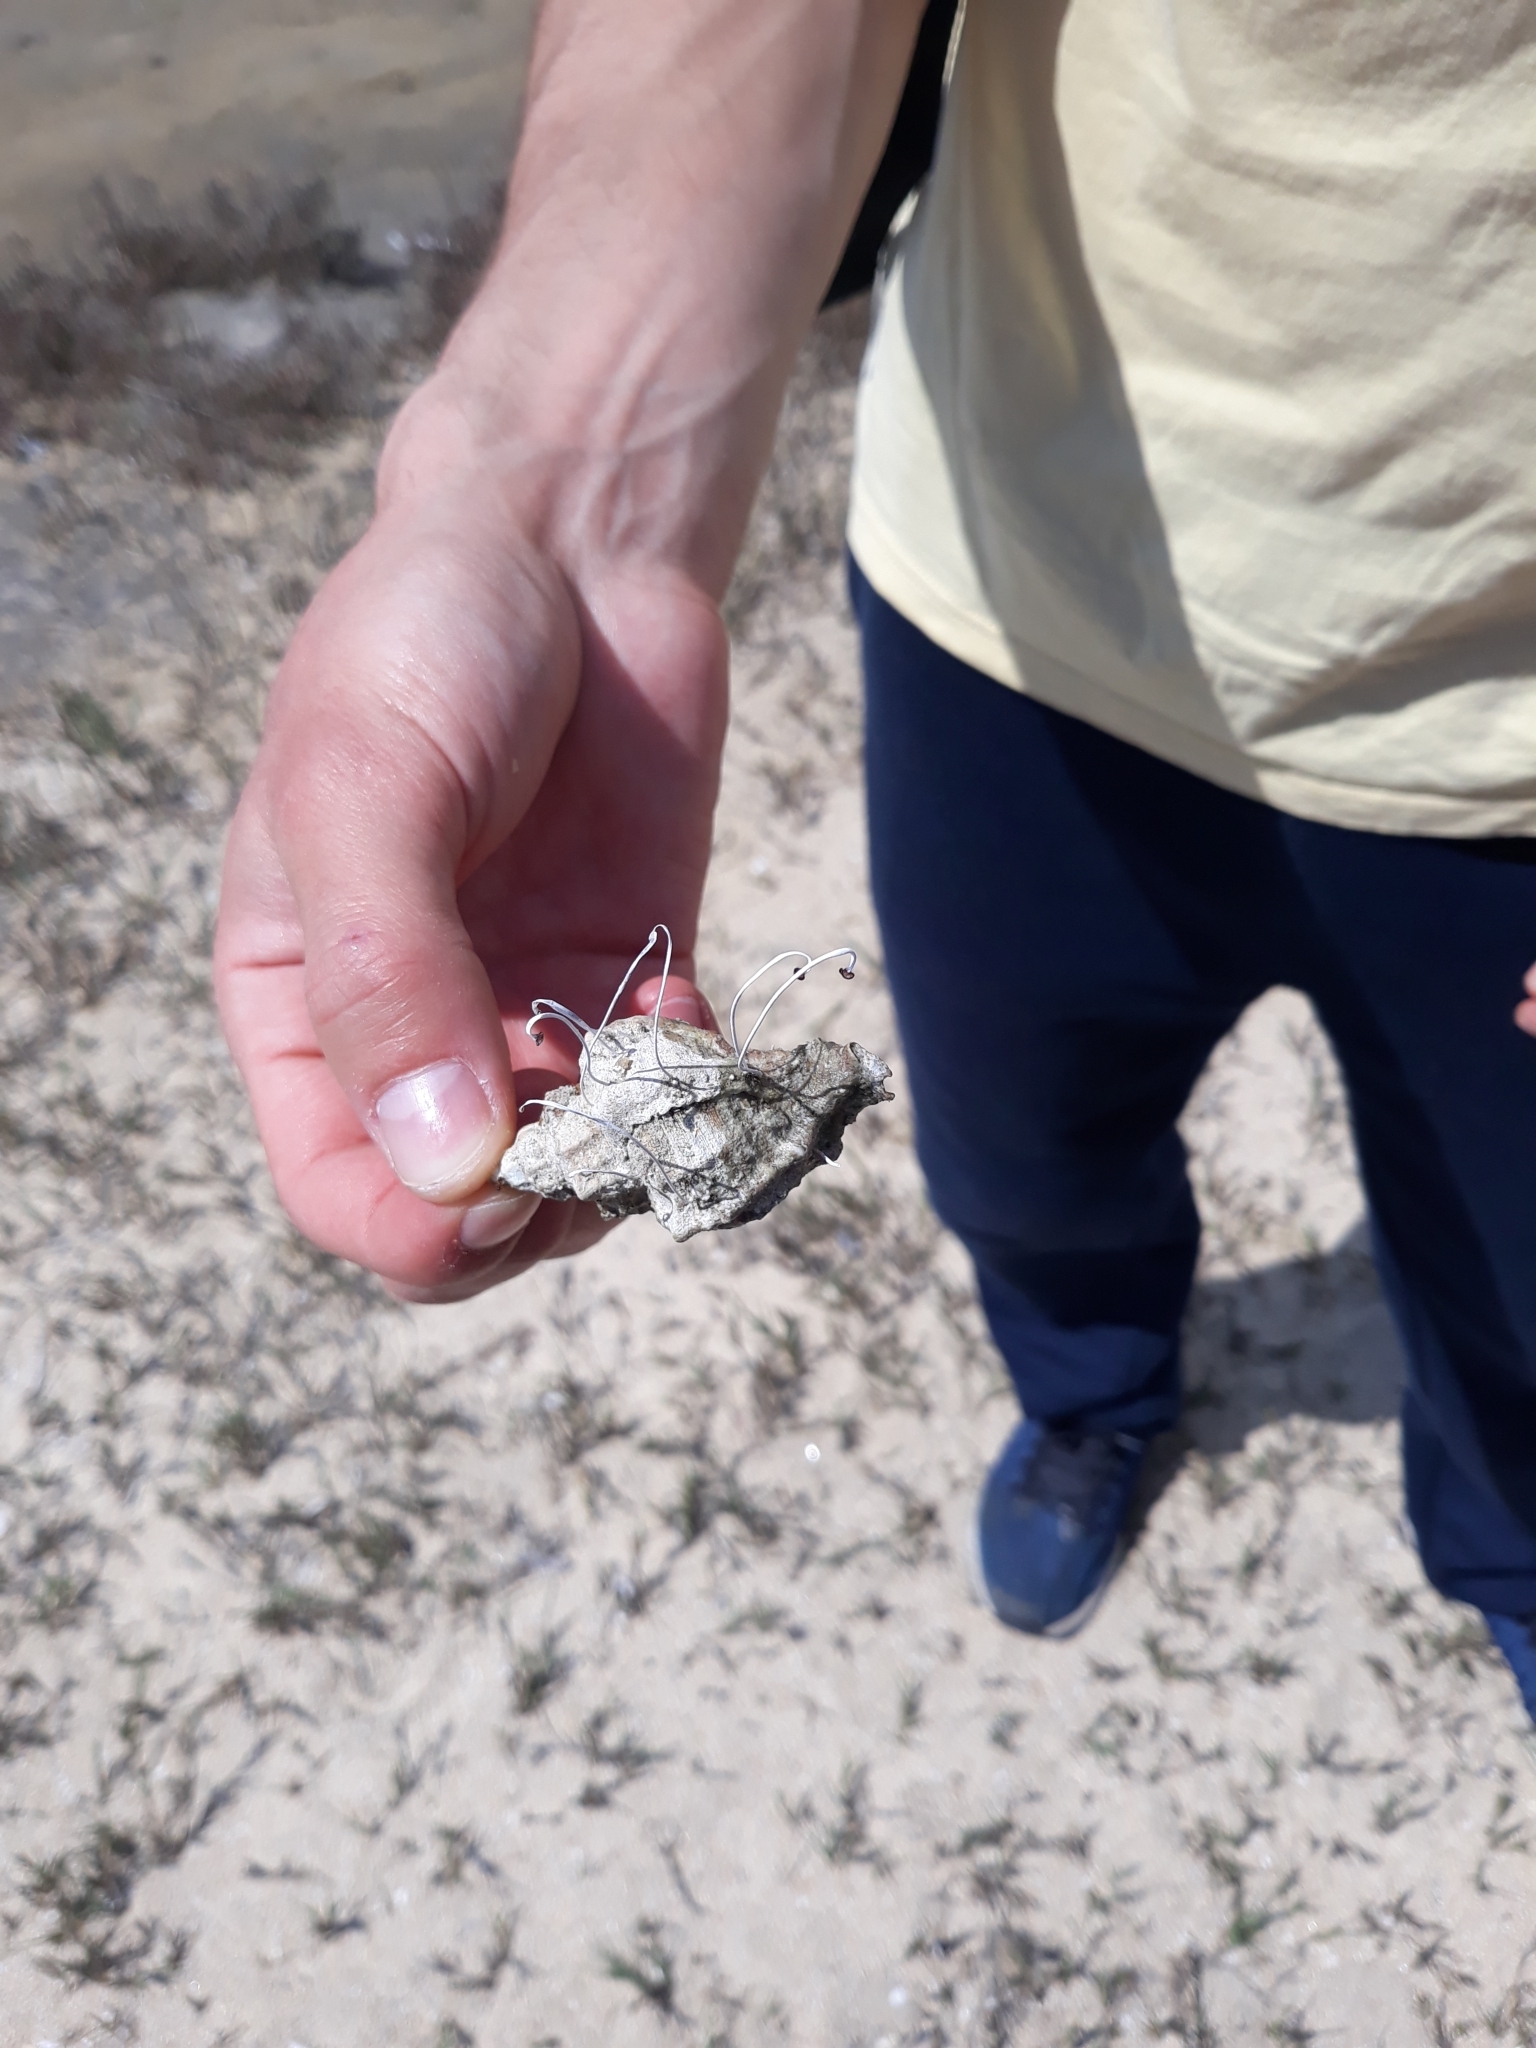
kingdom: Plantae
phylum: Chlorophyta
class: Ulvophyceae
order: Dasycladales
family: Polyphysaceae
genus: Acetabularia
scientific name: Acetabularia acetabulum
